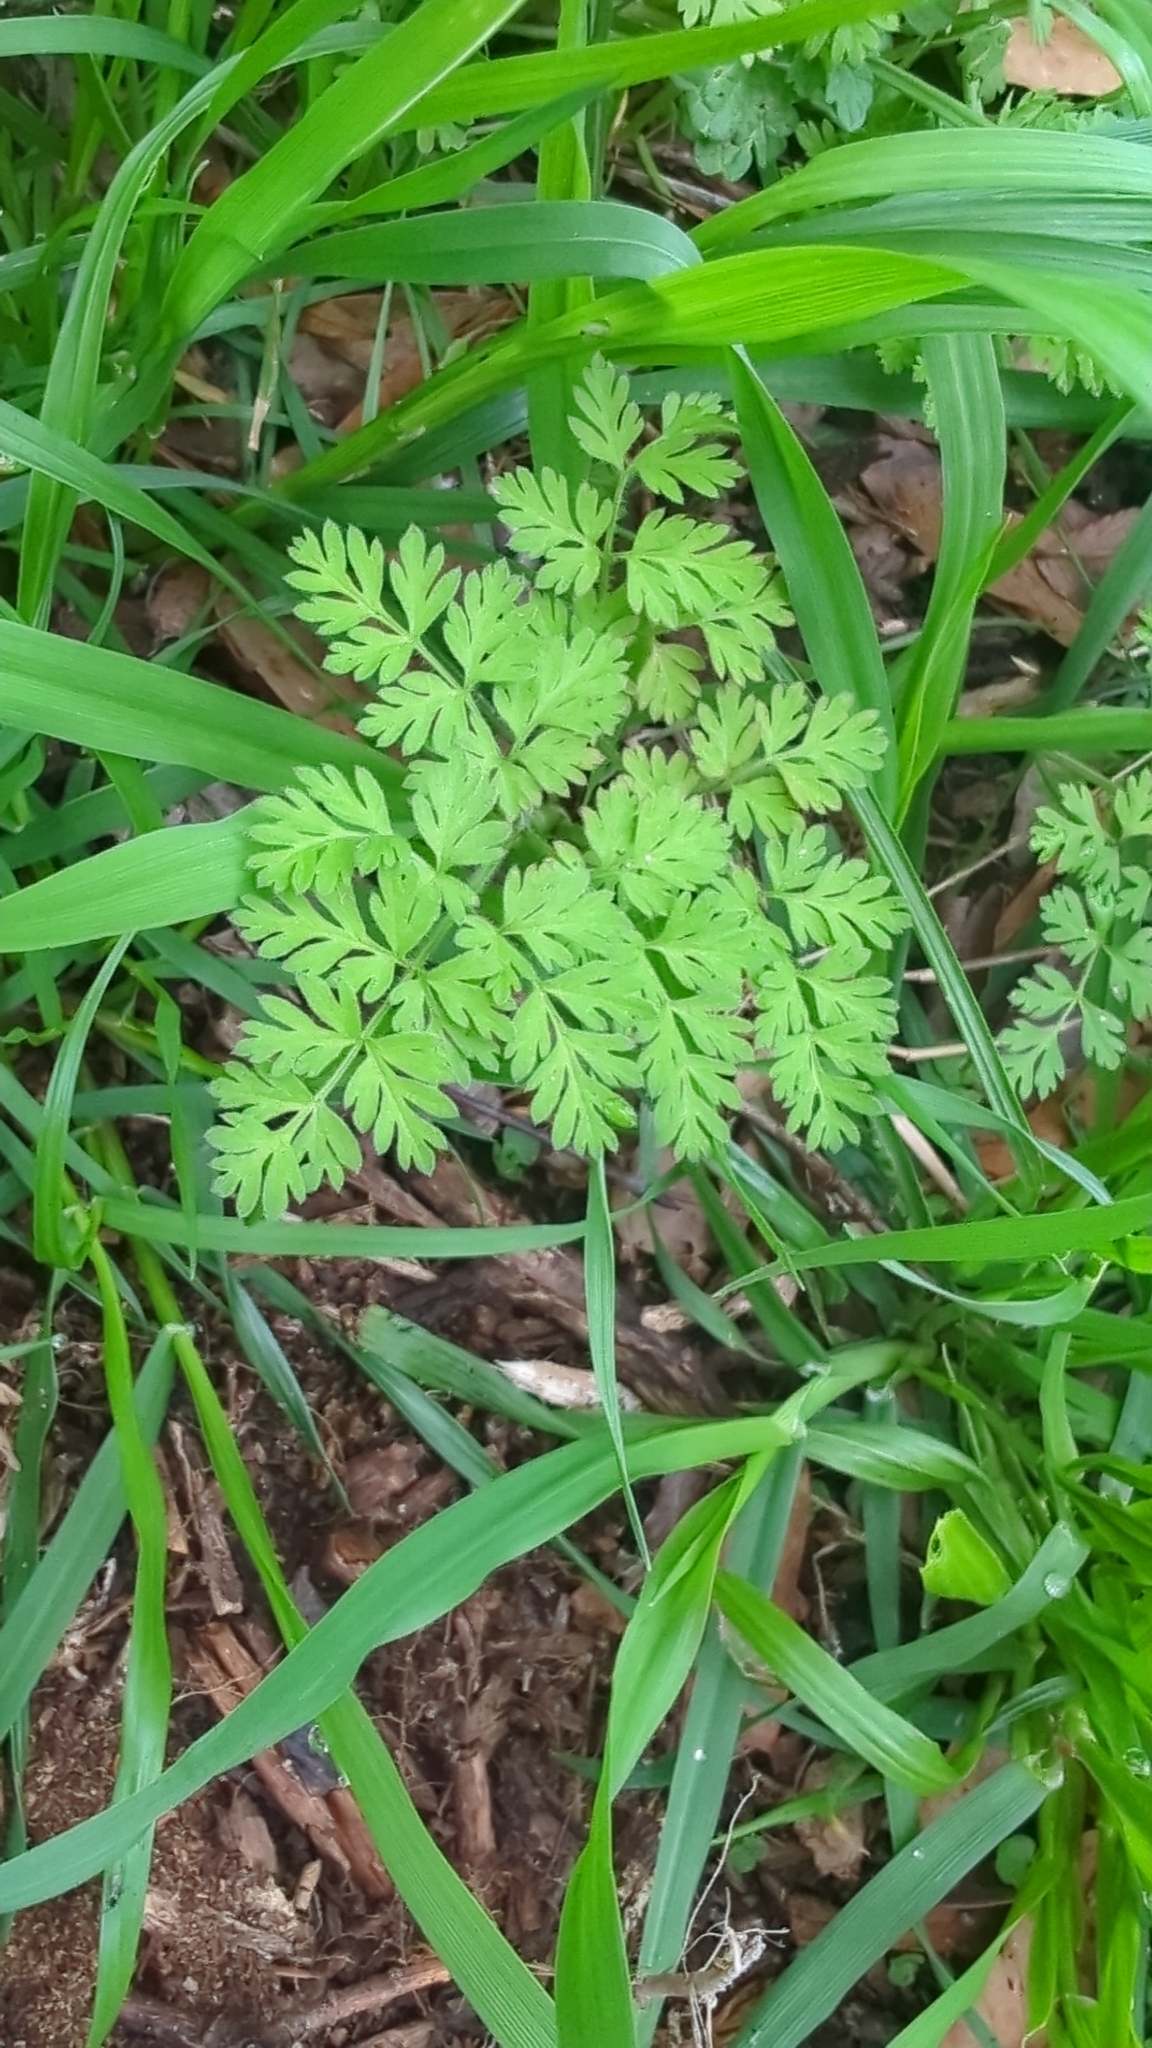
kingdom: Plantae
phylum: Tracheophyta
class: Magnoliopsida
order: Apiales
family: Apiaceae
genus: Chaerophyllum
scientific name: Chaerophyllum tainturieri
